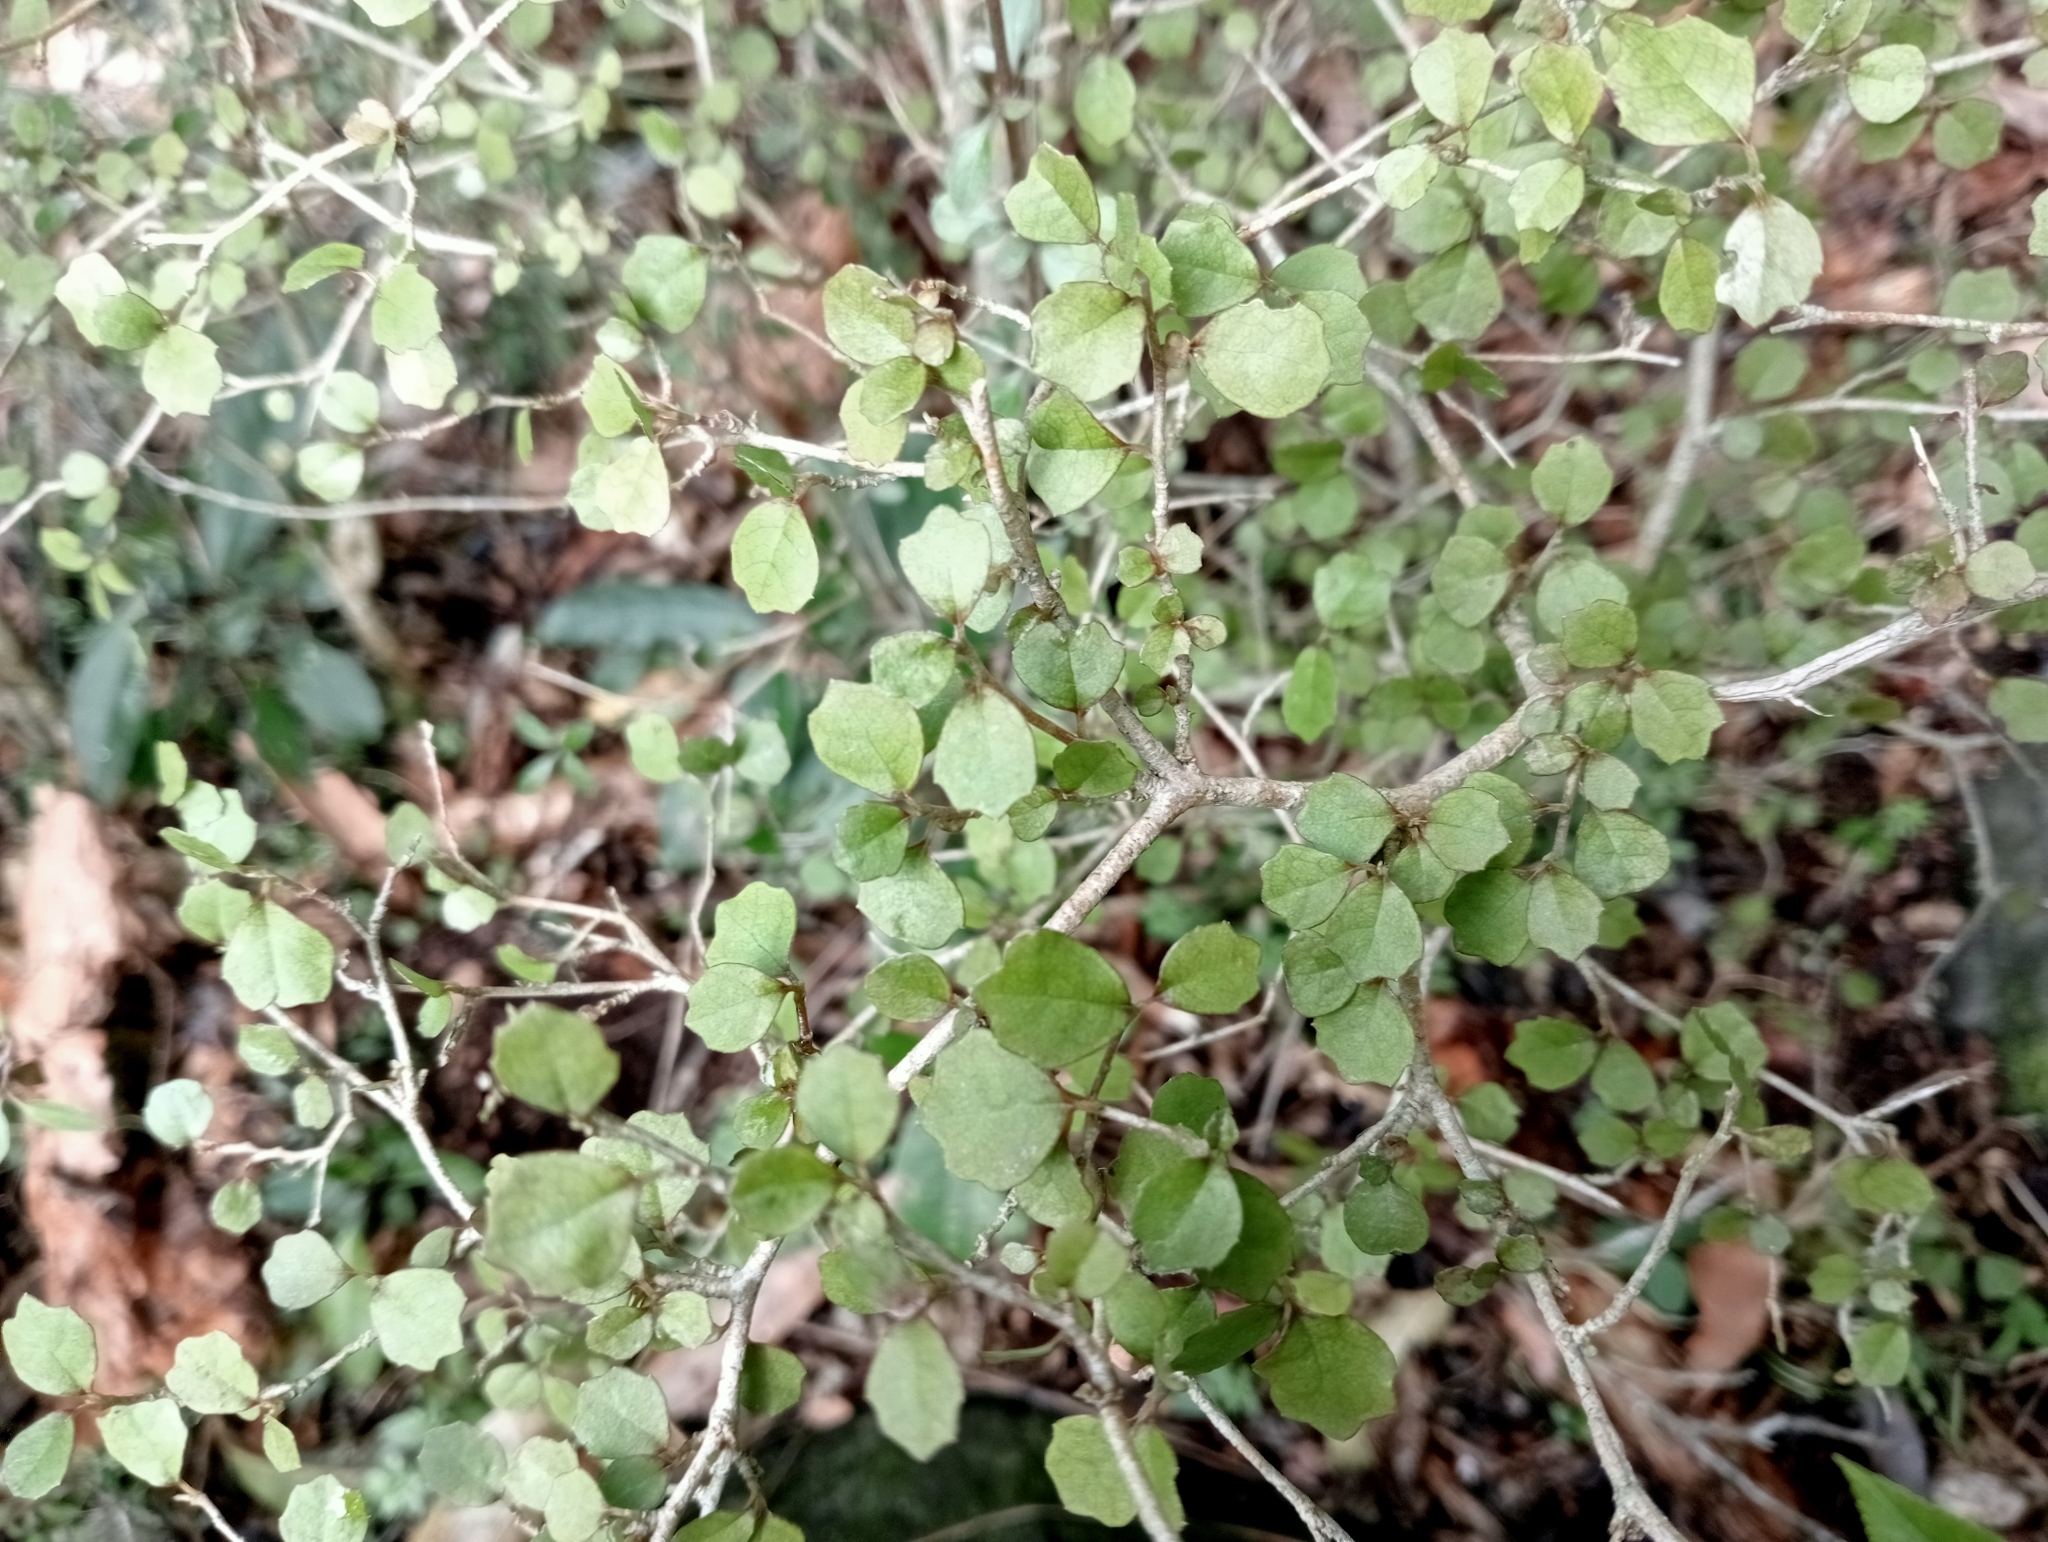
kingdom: Plantae
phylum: Tracheophyta
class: Magnoliopsida
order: Apiales
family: Pennantiaceae
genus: Pennantia
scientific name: Pennantia corymbosa
